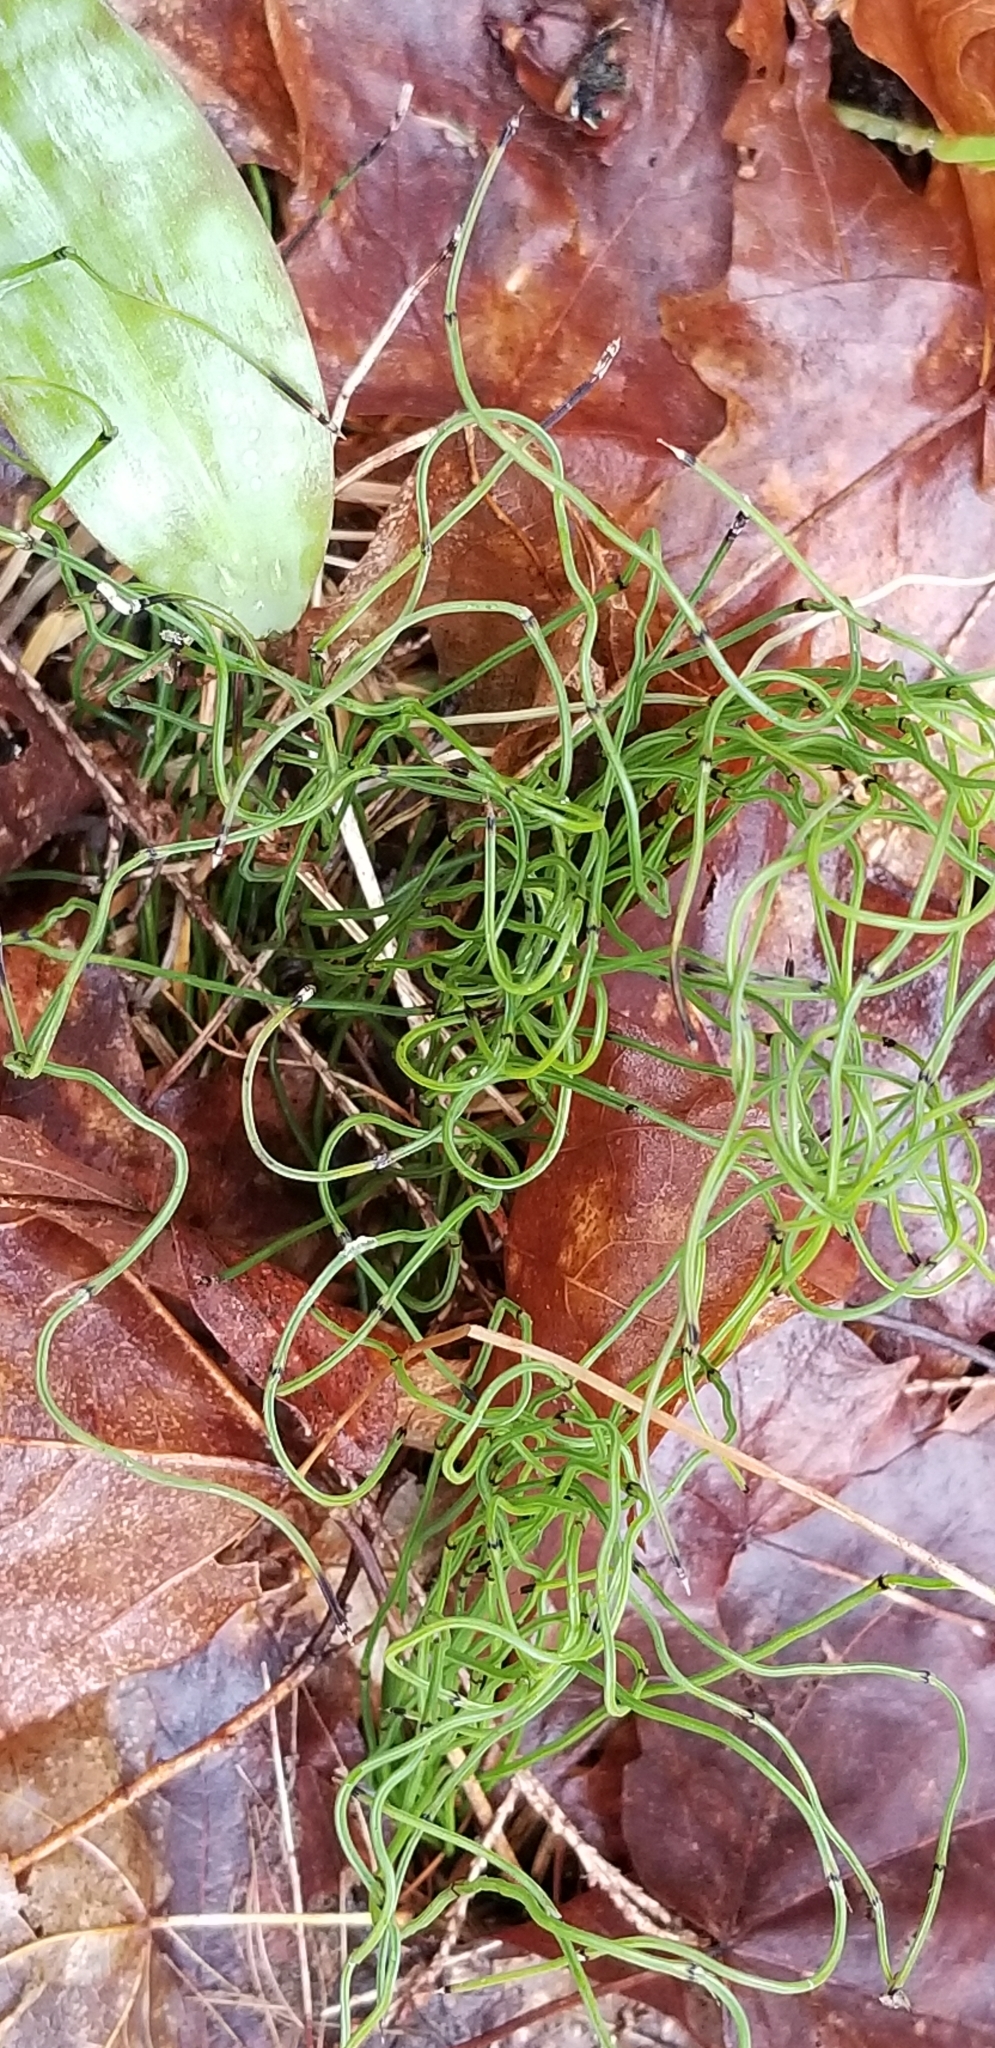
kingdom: Plantae
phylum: Tracheophyta
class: Polypodiopsida
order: Equisetales
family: Equisetaceae
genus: Equisetum
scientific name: Equisetum scirpoides
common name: Delicate horsetail
